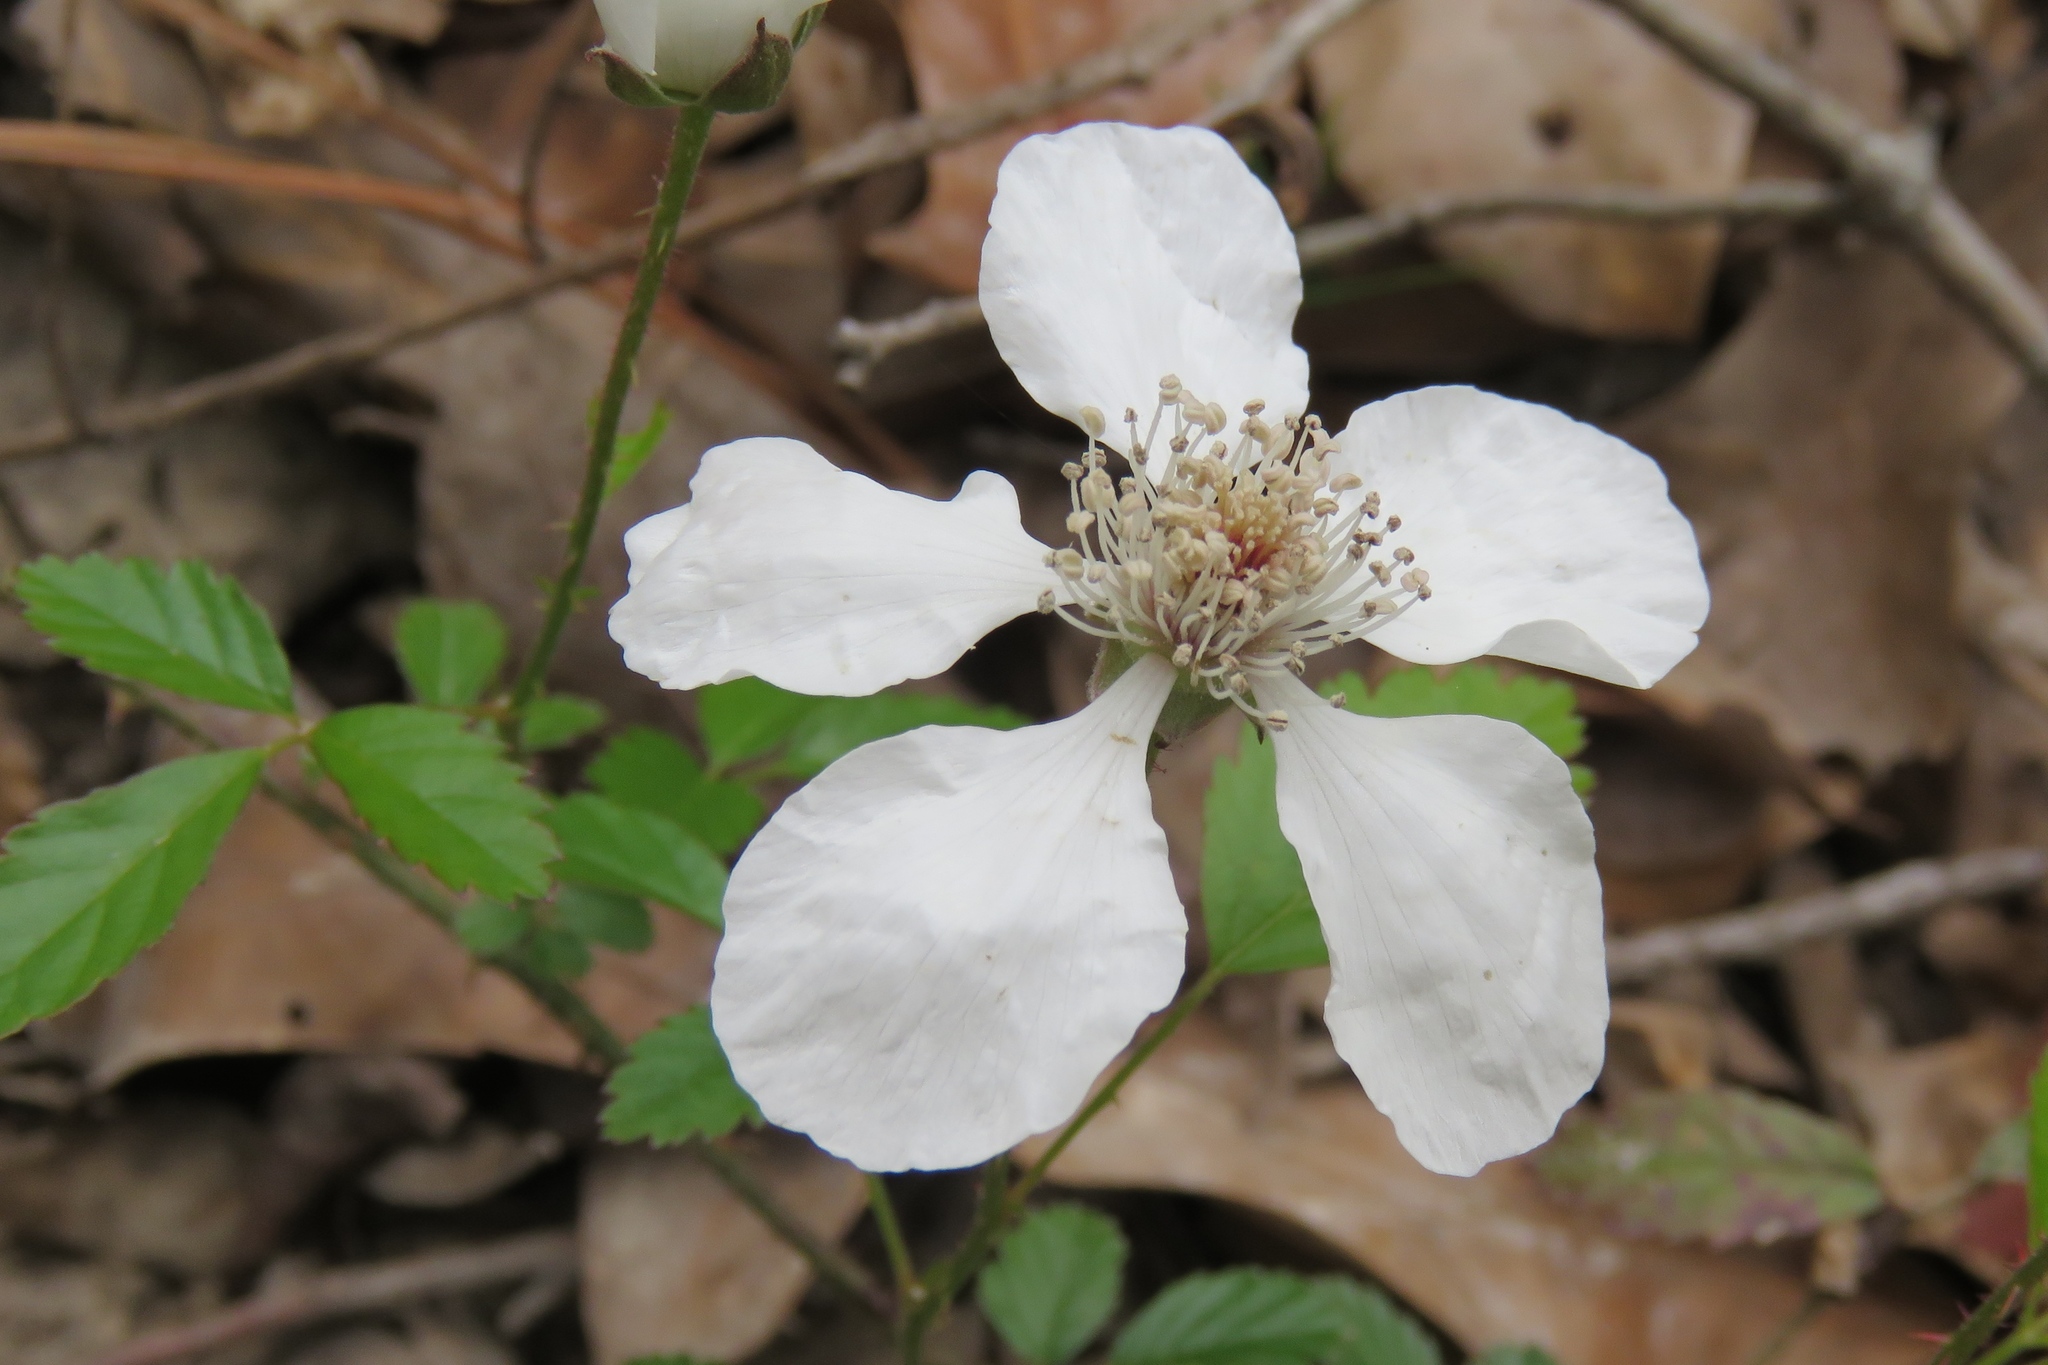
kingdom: Plantae
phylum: Tracheophyta
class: Magnoliopsida
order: Rosales
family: Rosaceae
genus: Rubus
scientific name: Rubus trivialis
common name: Southern dewberry
